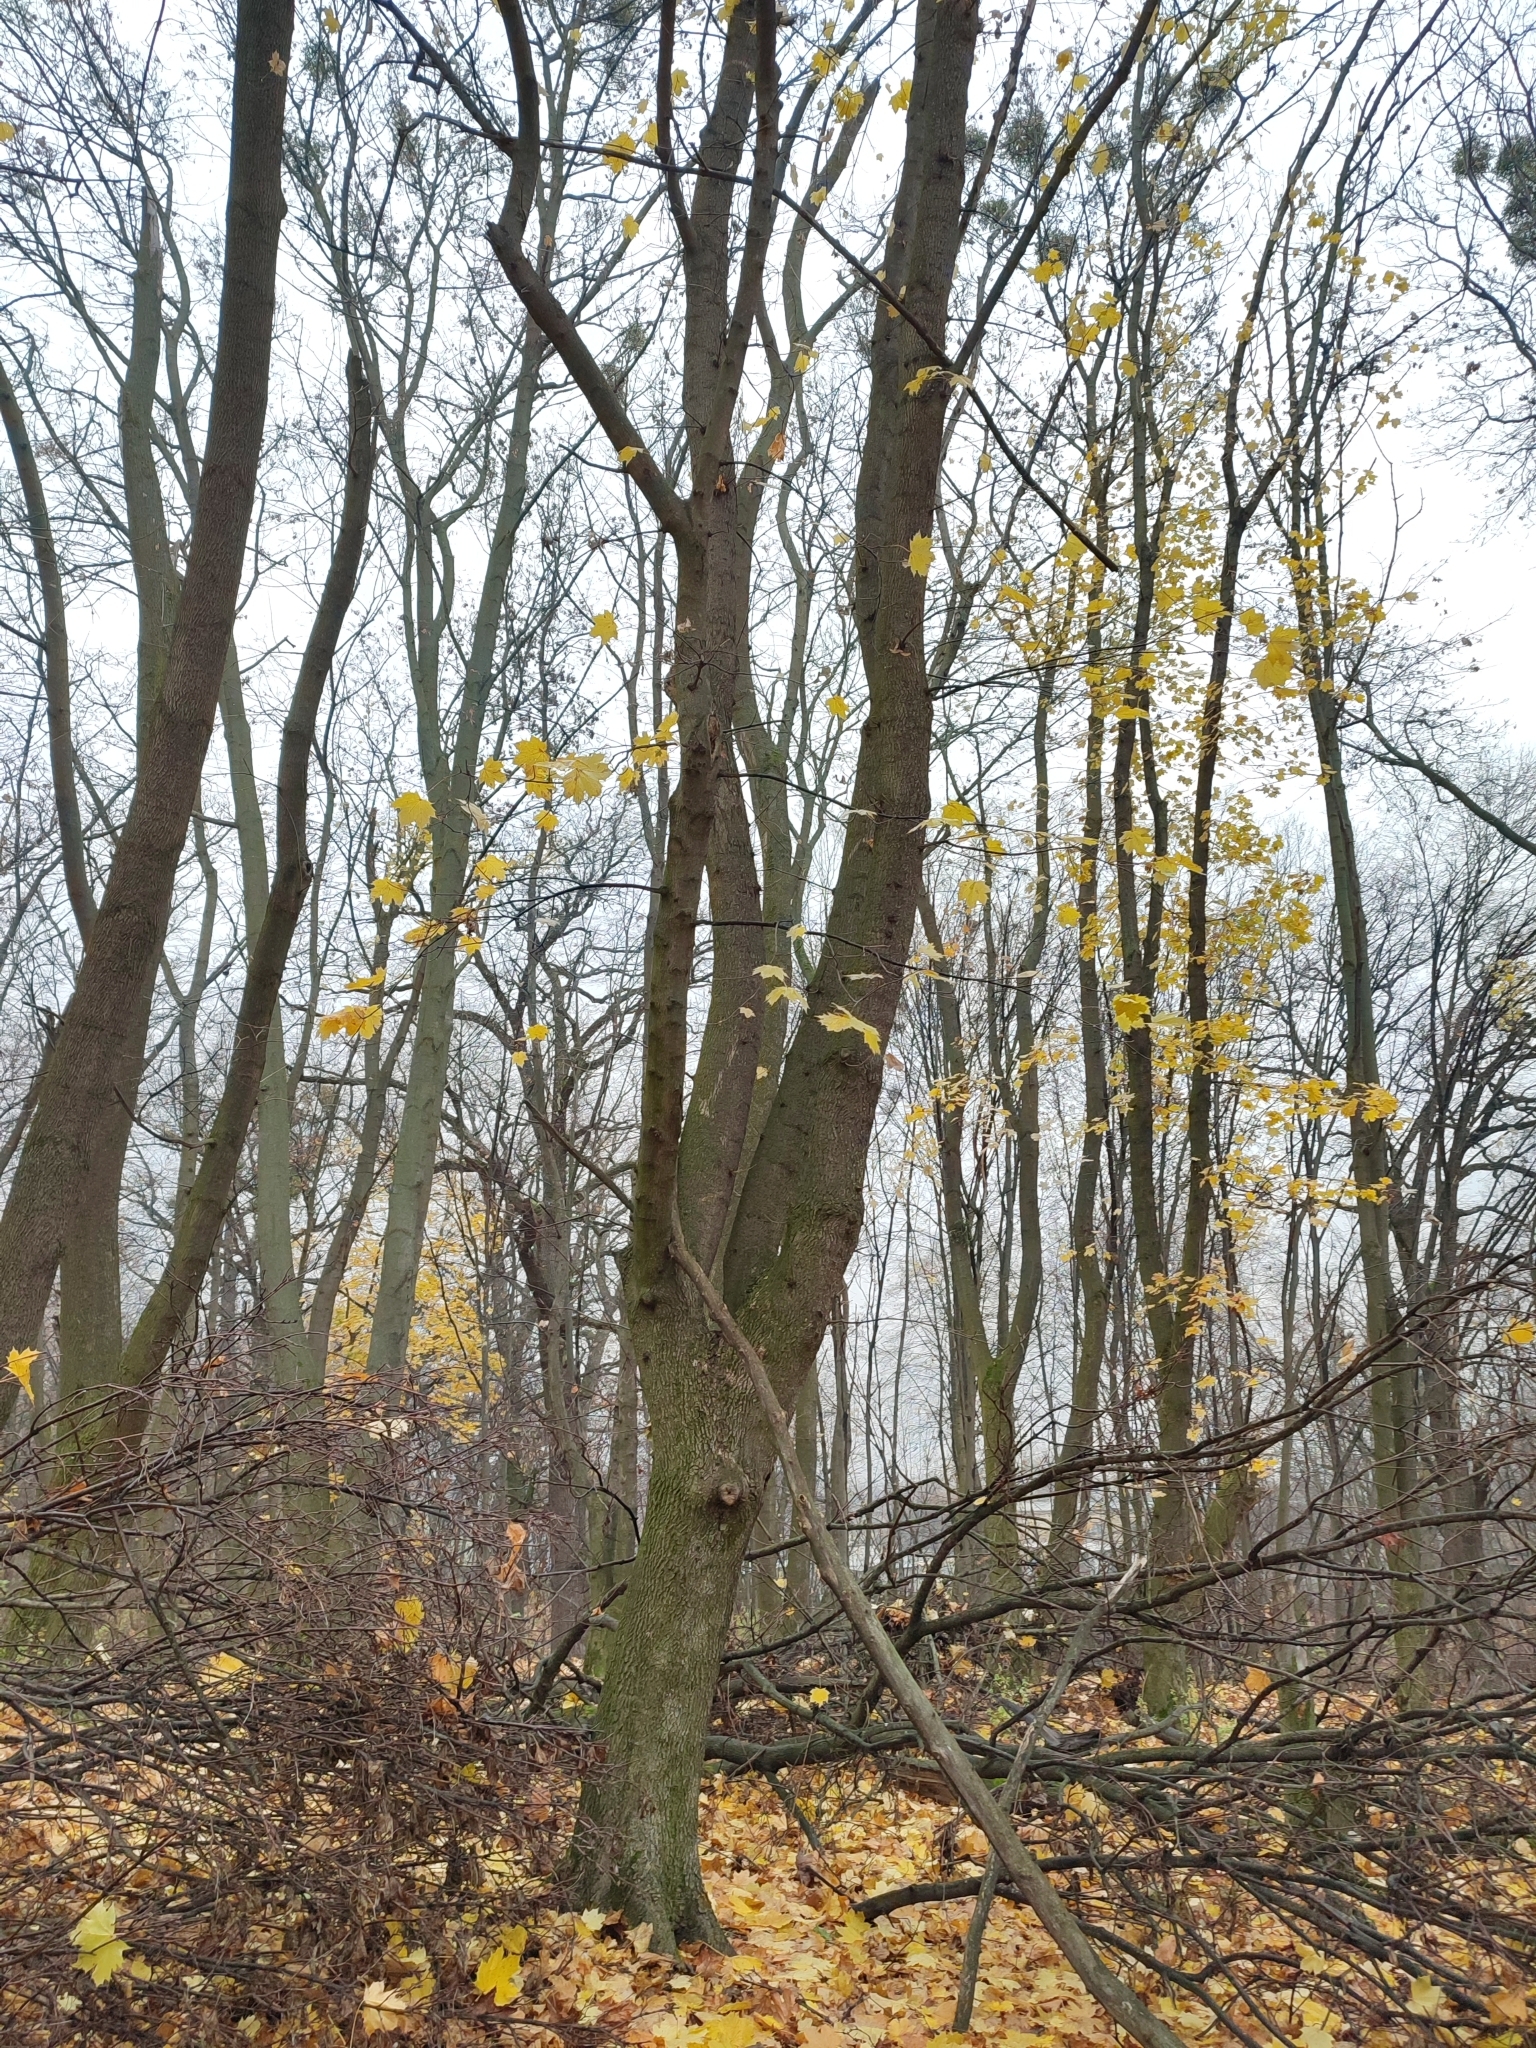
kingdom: Plantae
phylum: Tracheophyta
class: Magnoliopsida
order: Sapindales
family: Sapindaceae
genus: Acer
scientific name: Acer platanoides
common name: Norway maple
